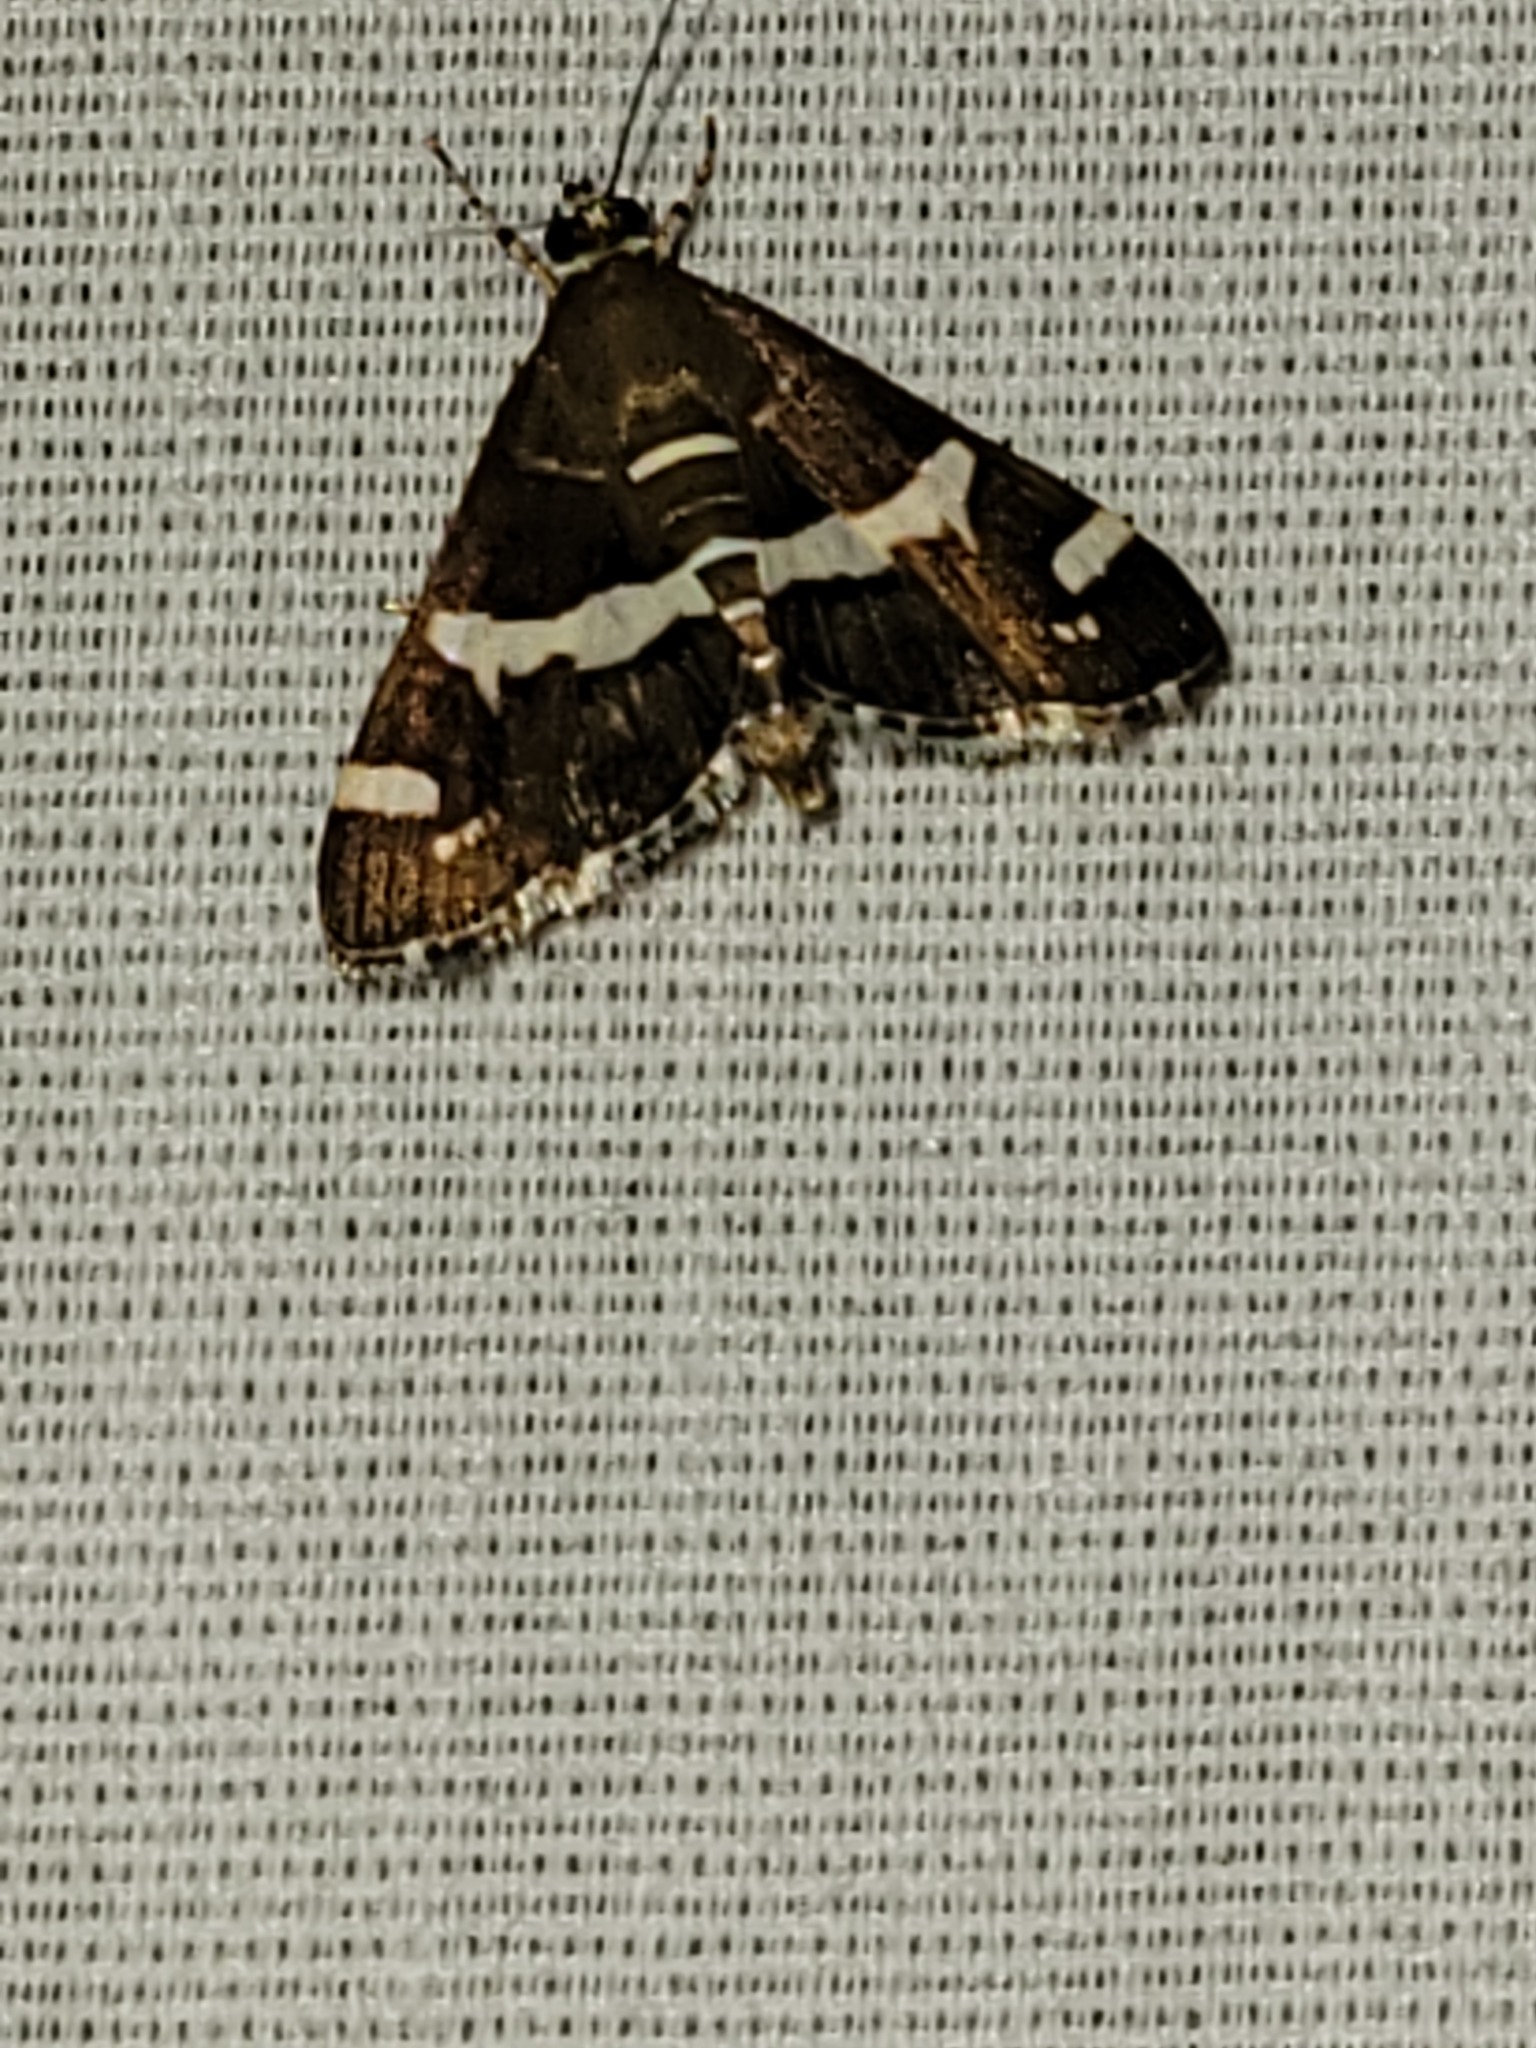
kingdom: Animalia
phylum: Arthropoda
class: Insecta
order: Lepidoptera
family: Crambidae
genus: Spoladea
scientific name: Spoladea recurvalis
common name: Beet webworm moth
